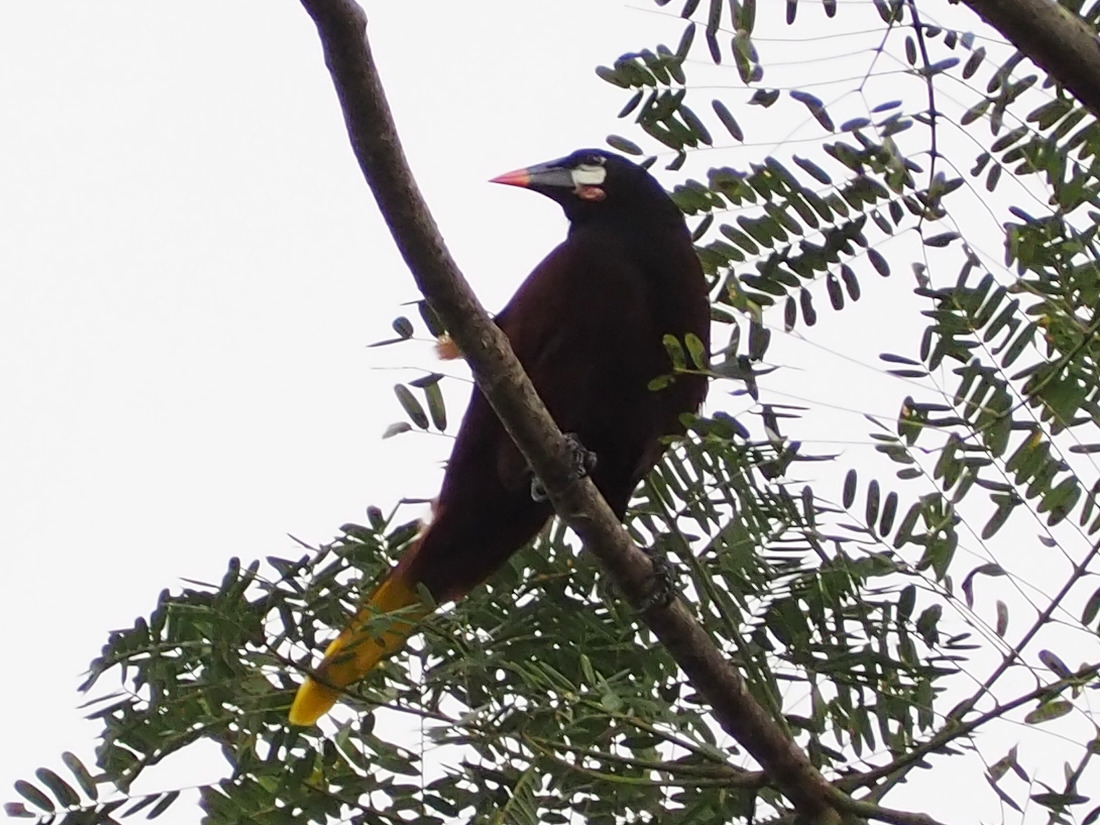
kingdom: Animalia
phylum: Chordata
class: Aves
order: Passeriformes
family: Icteridae
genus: Psarocolius
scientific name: Psarocolius montezuma
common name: Montezuma oropendola
